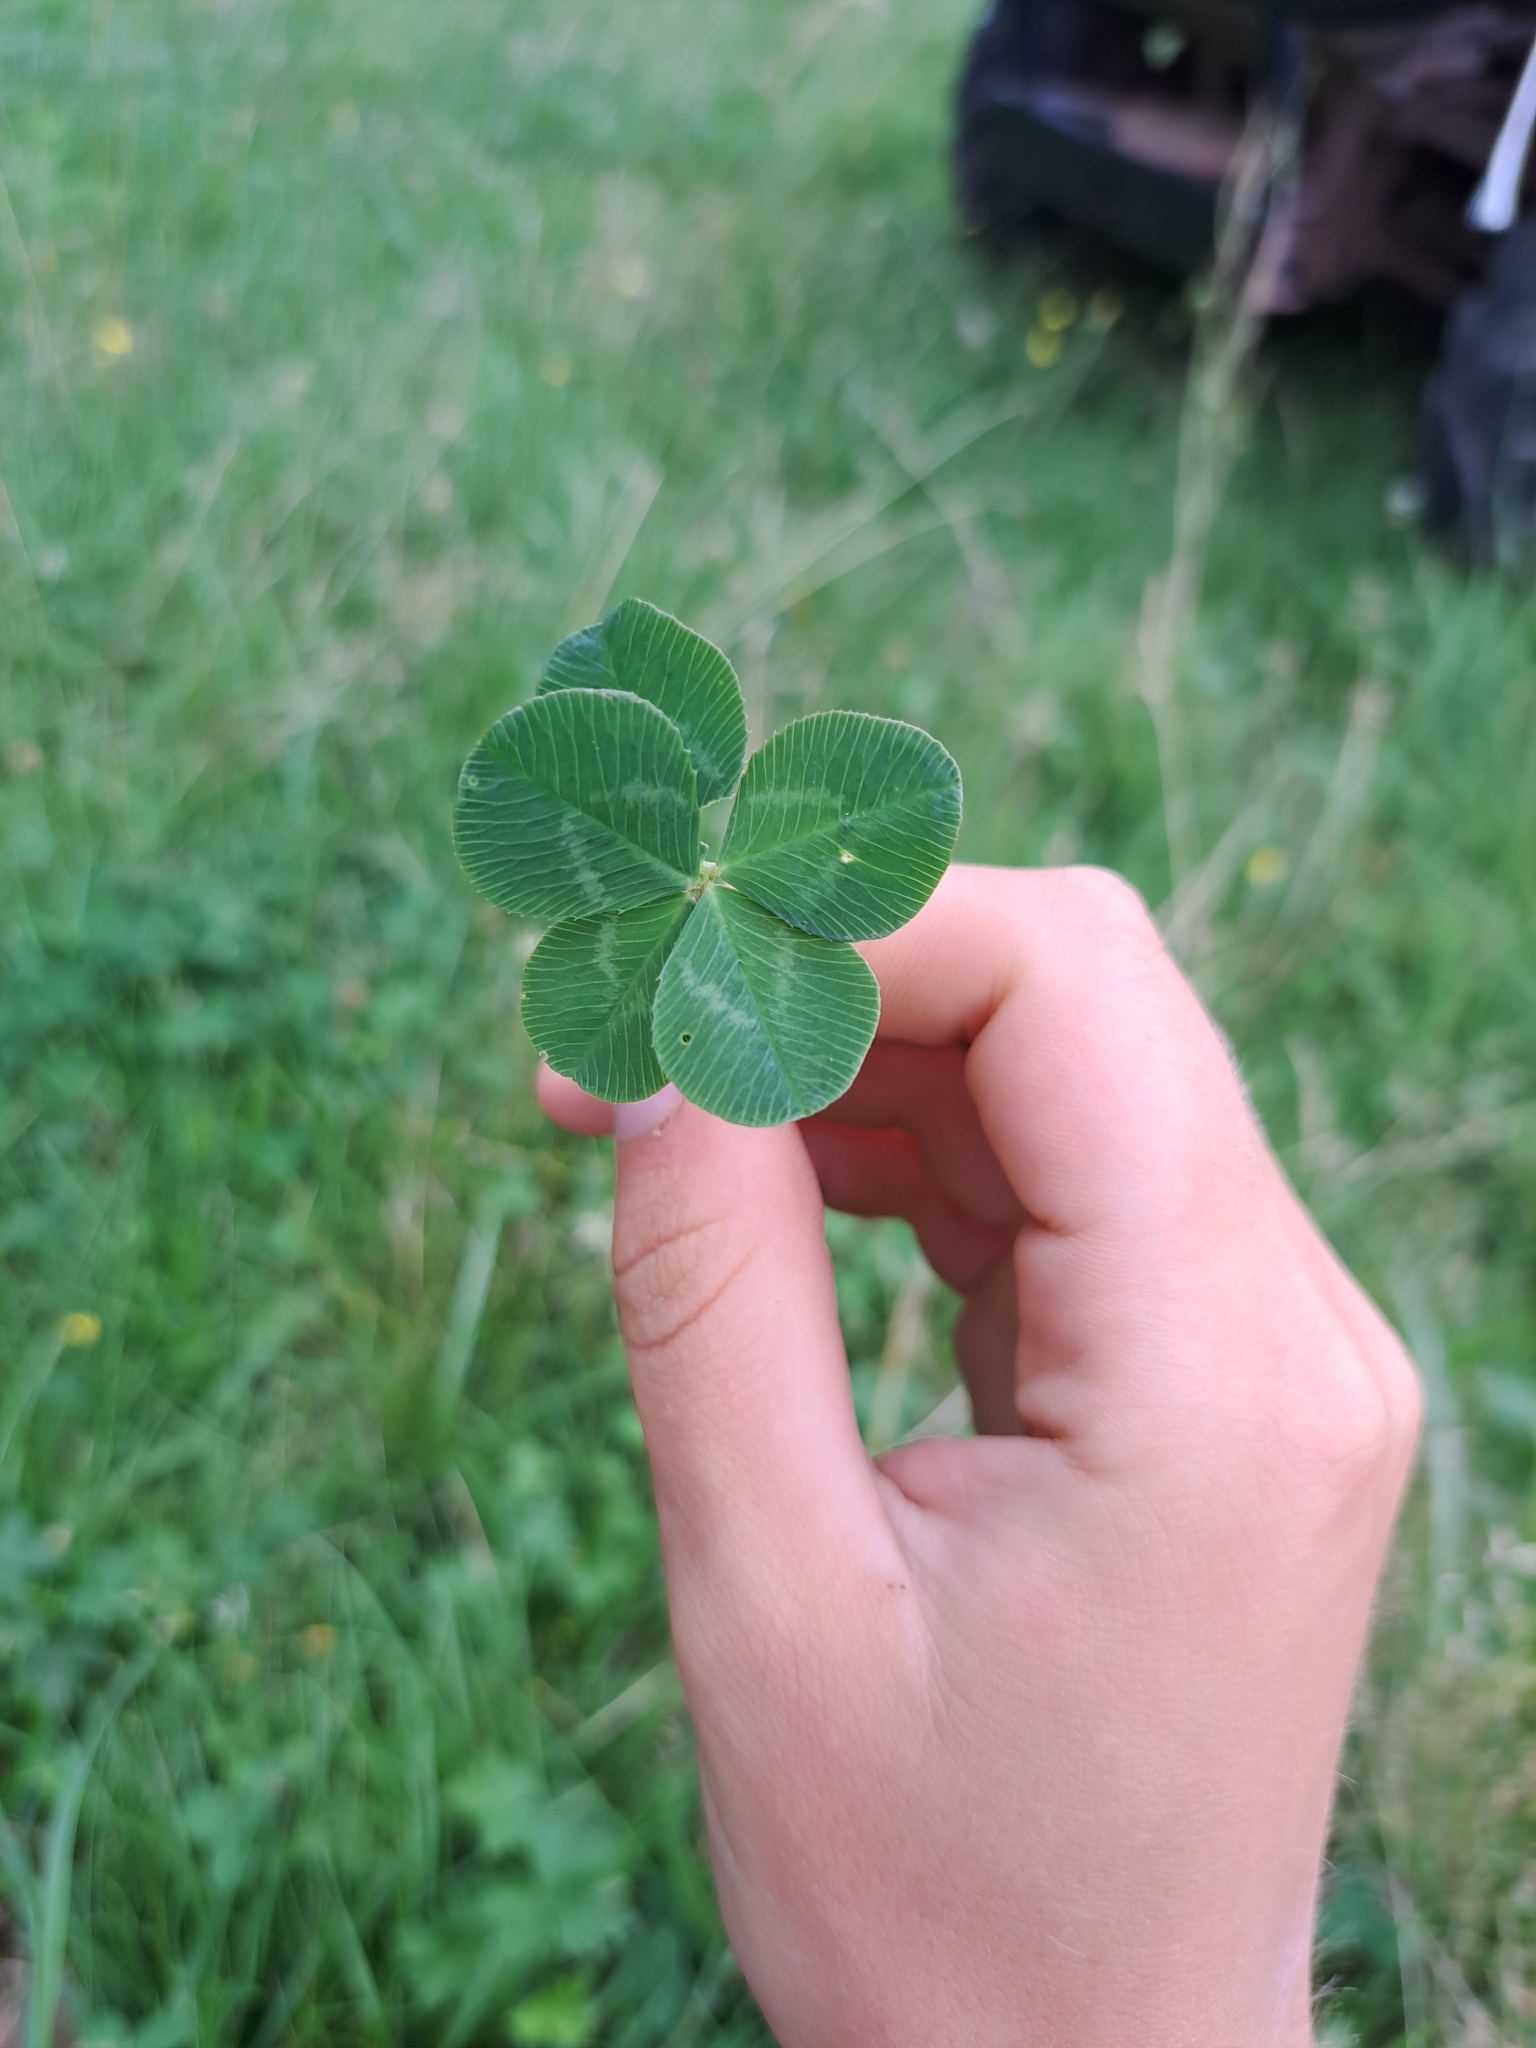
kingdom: Plantae
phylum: Tracheophyta
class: Magnoliopsida
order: Fabales
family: Fabaceae
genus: Trifolium
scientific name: Trifolium repens
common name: White clover
